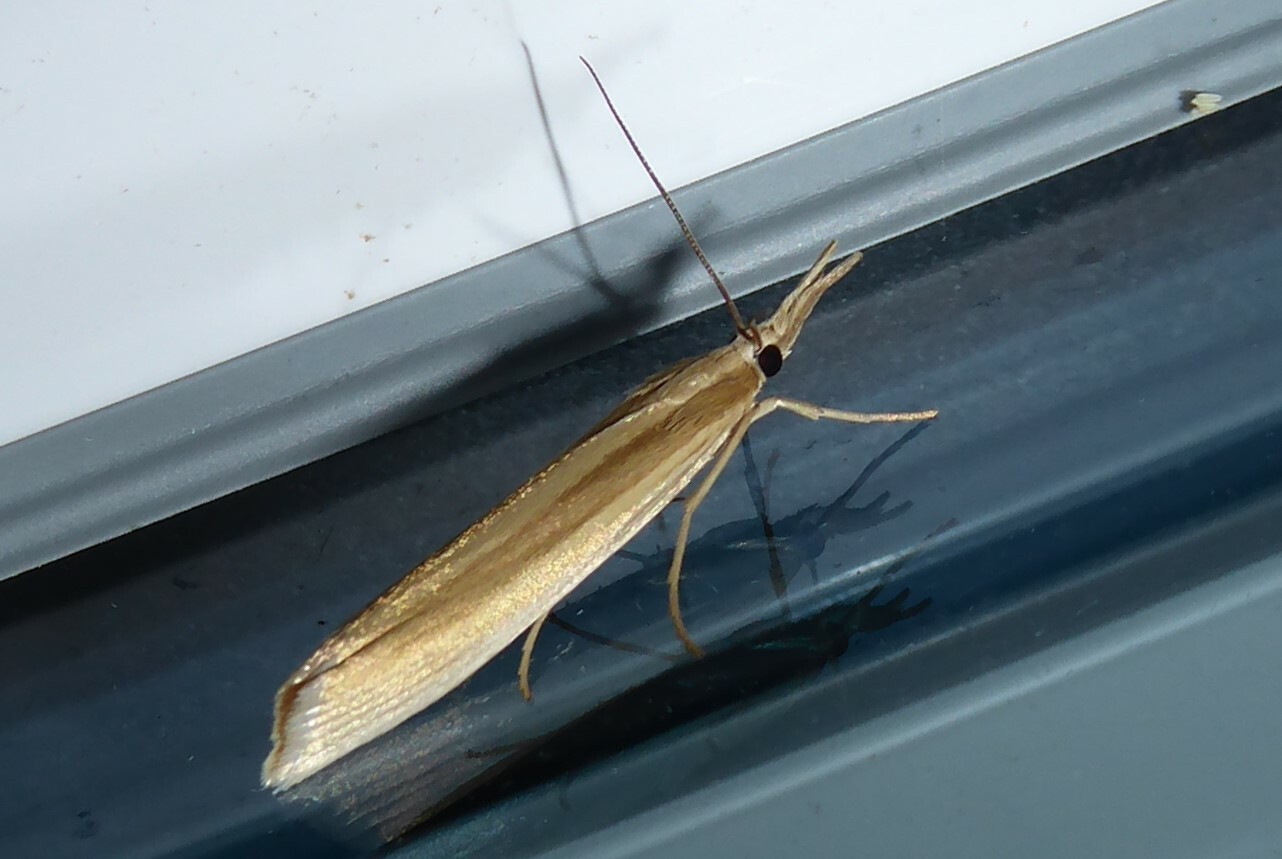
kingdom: Animalia
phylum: Arthropoda
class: Insecta
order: Lepidoptera
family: Crambidae
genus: Orocrambus
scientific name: Orocrambus angustipennis
